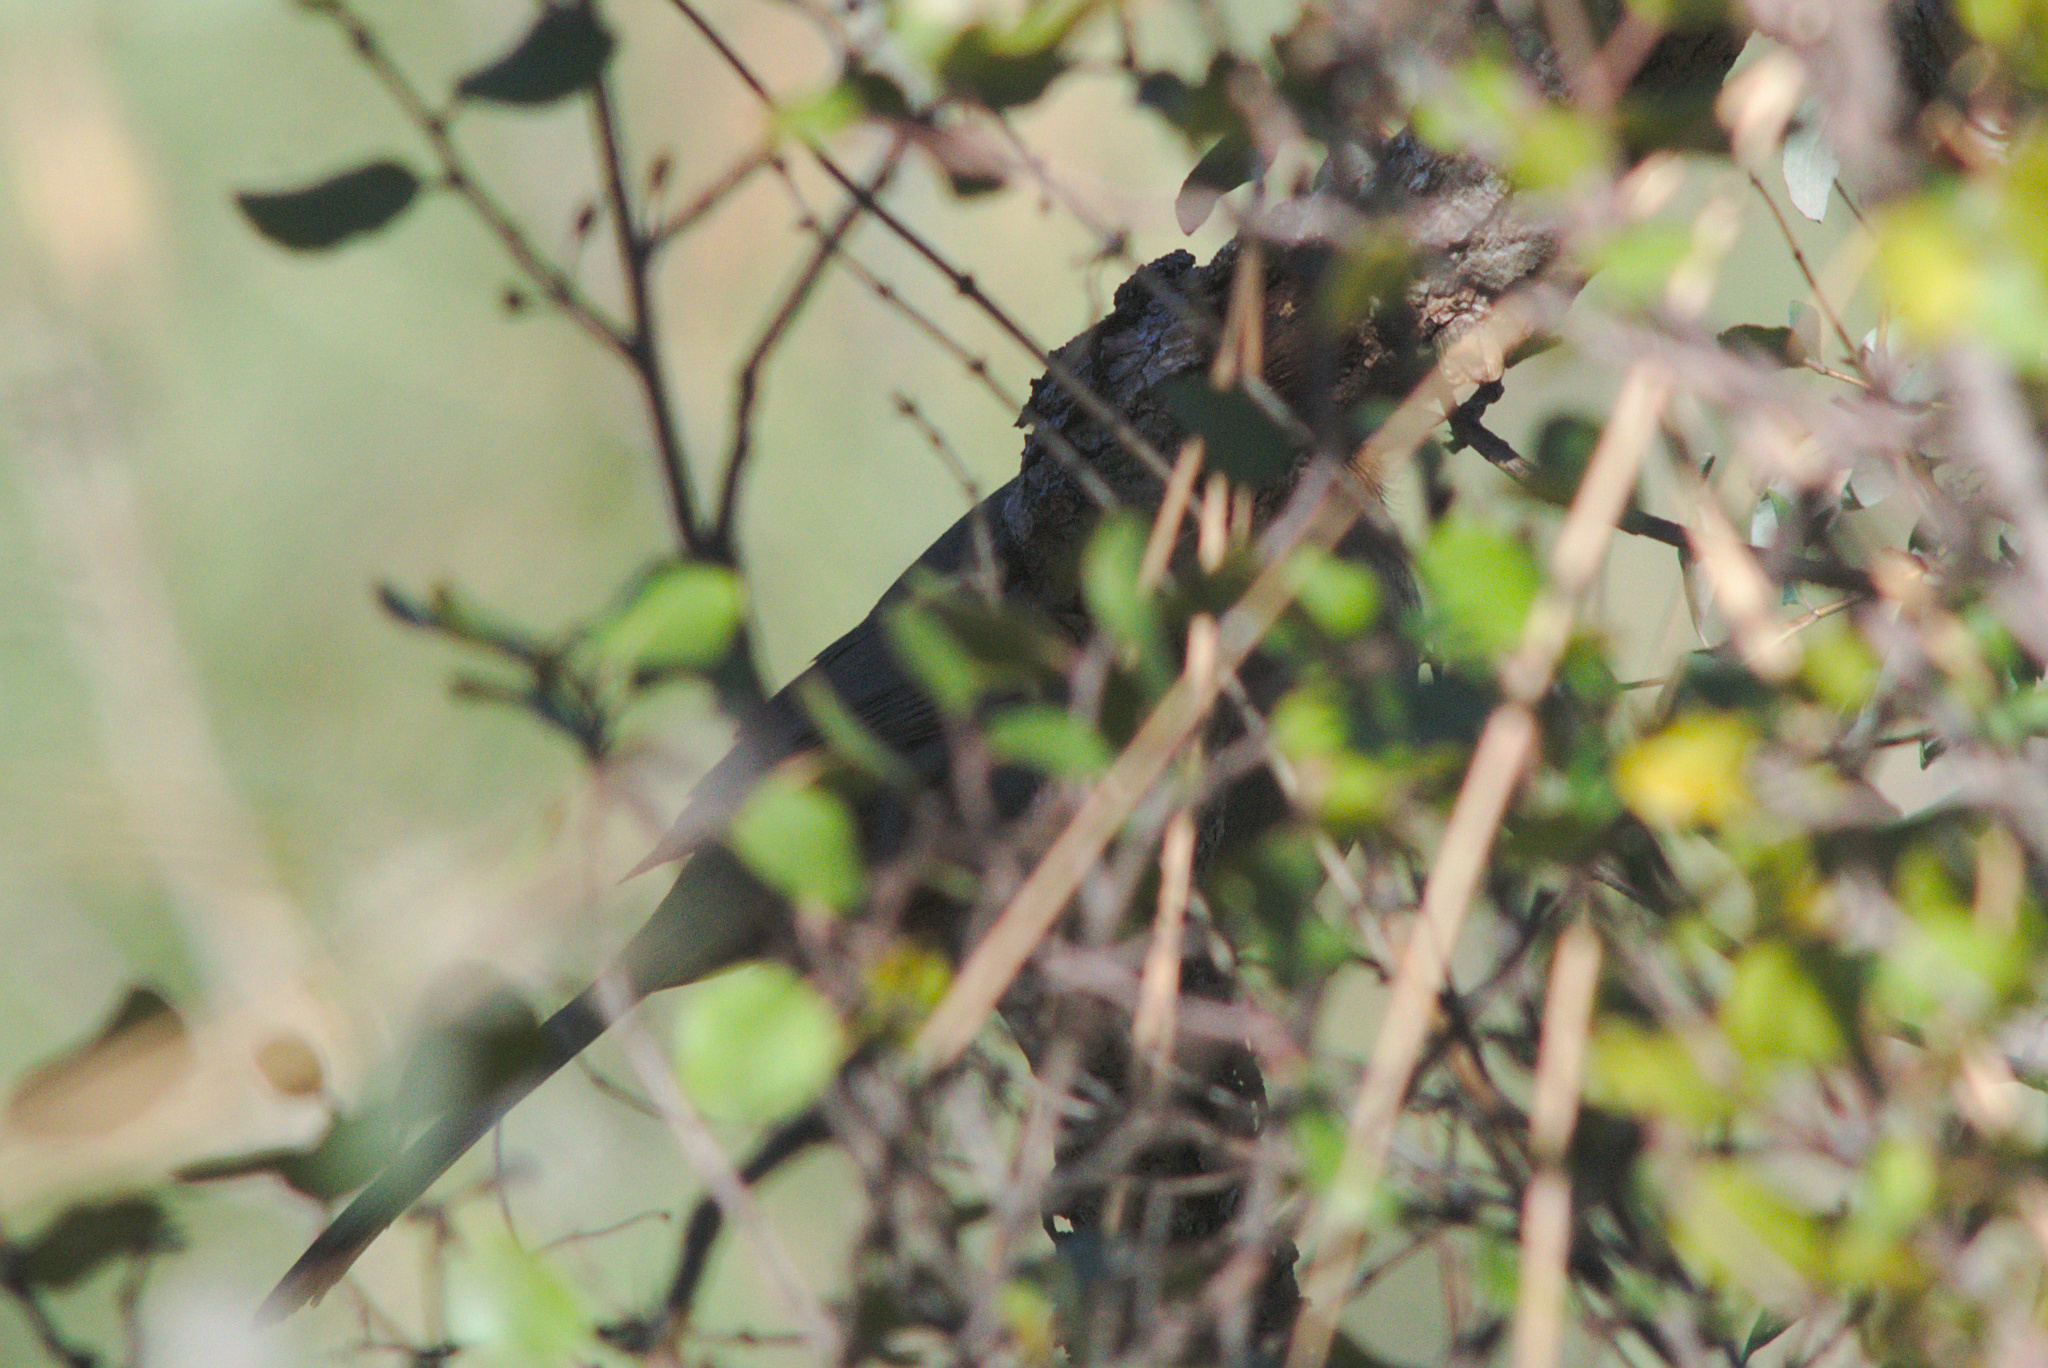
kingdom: Animalia
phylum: Chordata
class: Aves
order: Passeriformes
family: Passerellidae
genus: Melozone
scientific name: Melozone crissalis
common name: California towhee
